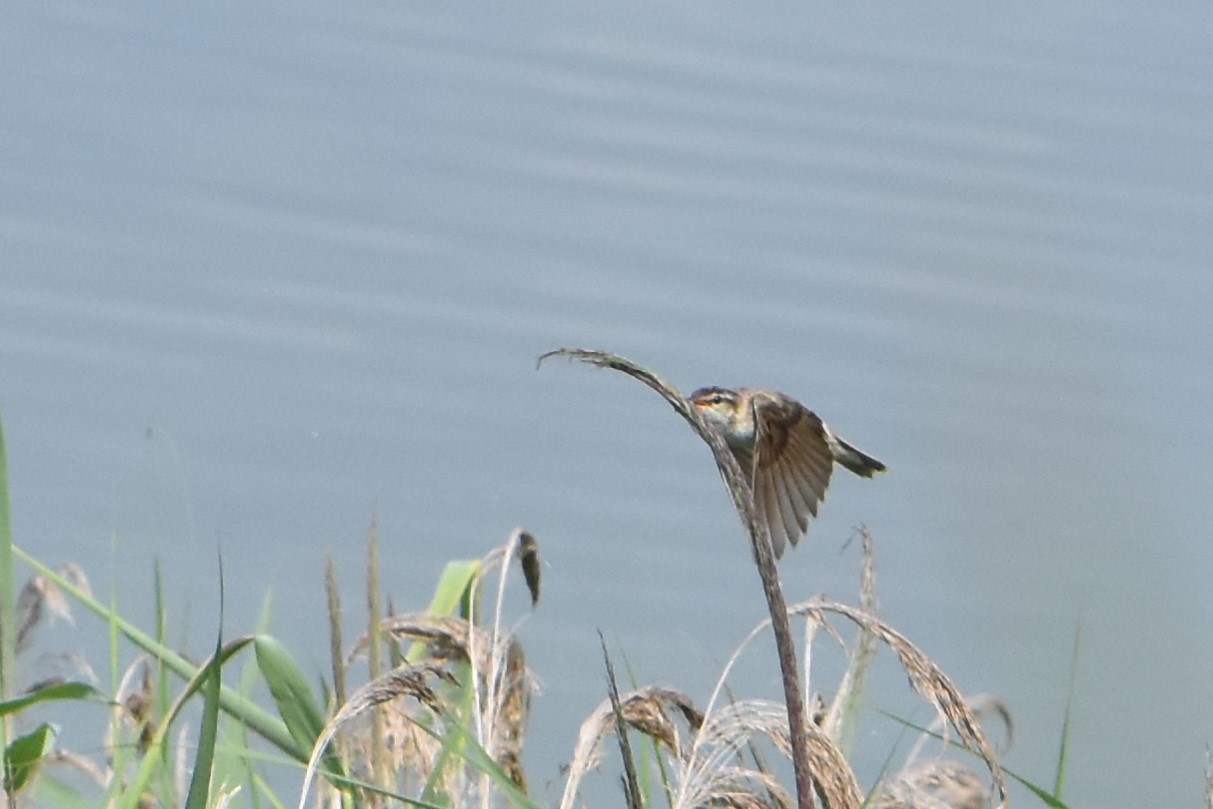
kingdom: Animalia
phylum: Chordata
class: Aves
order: Passeriformes
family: Acrocephalidae
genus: Acrocephalus
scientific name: Acrocephalus schoenobaenus
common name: Sedge warbler
